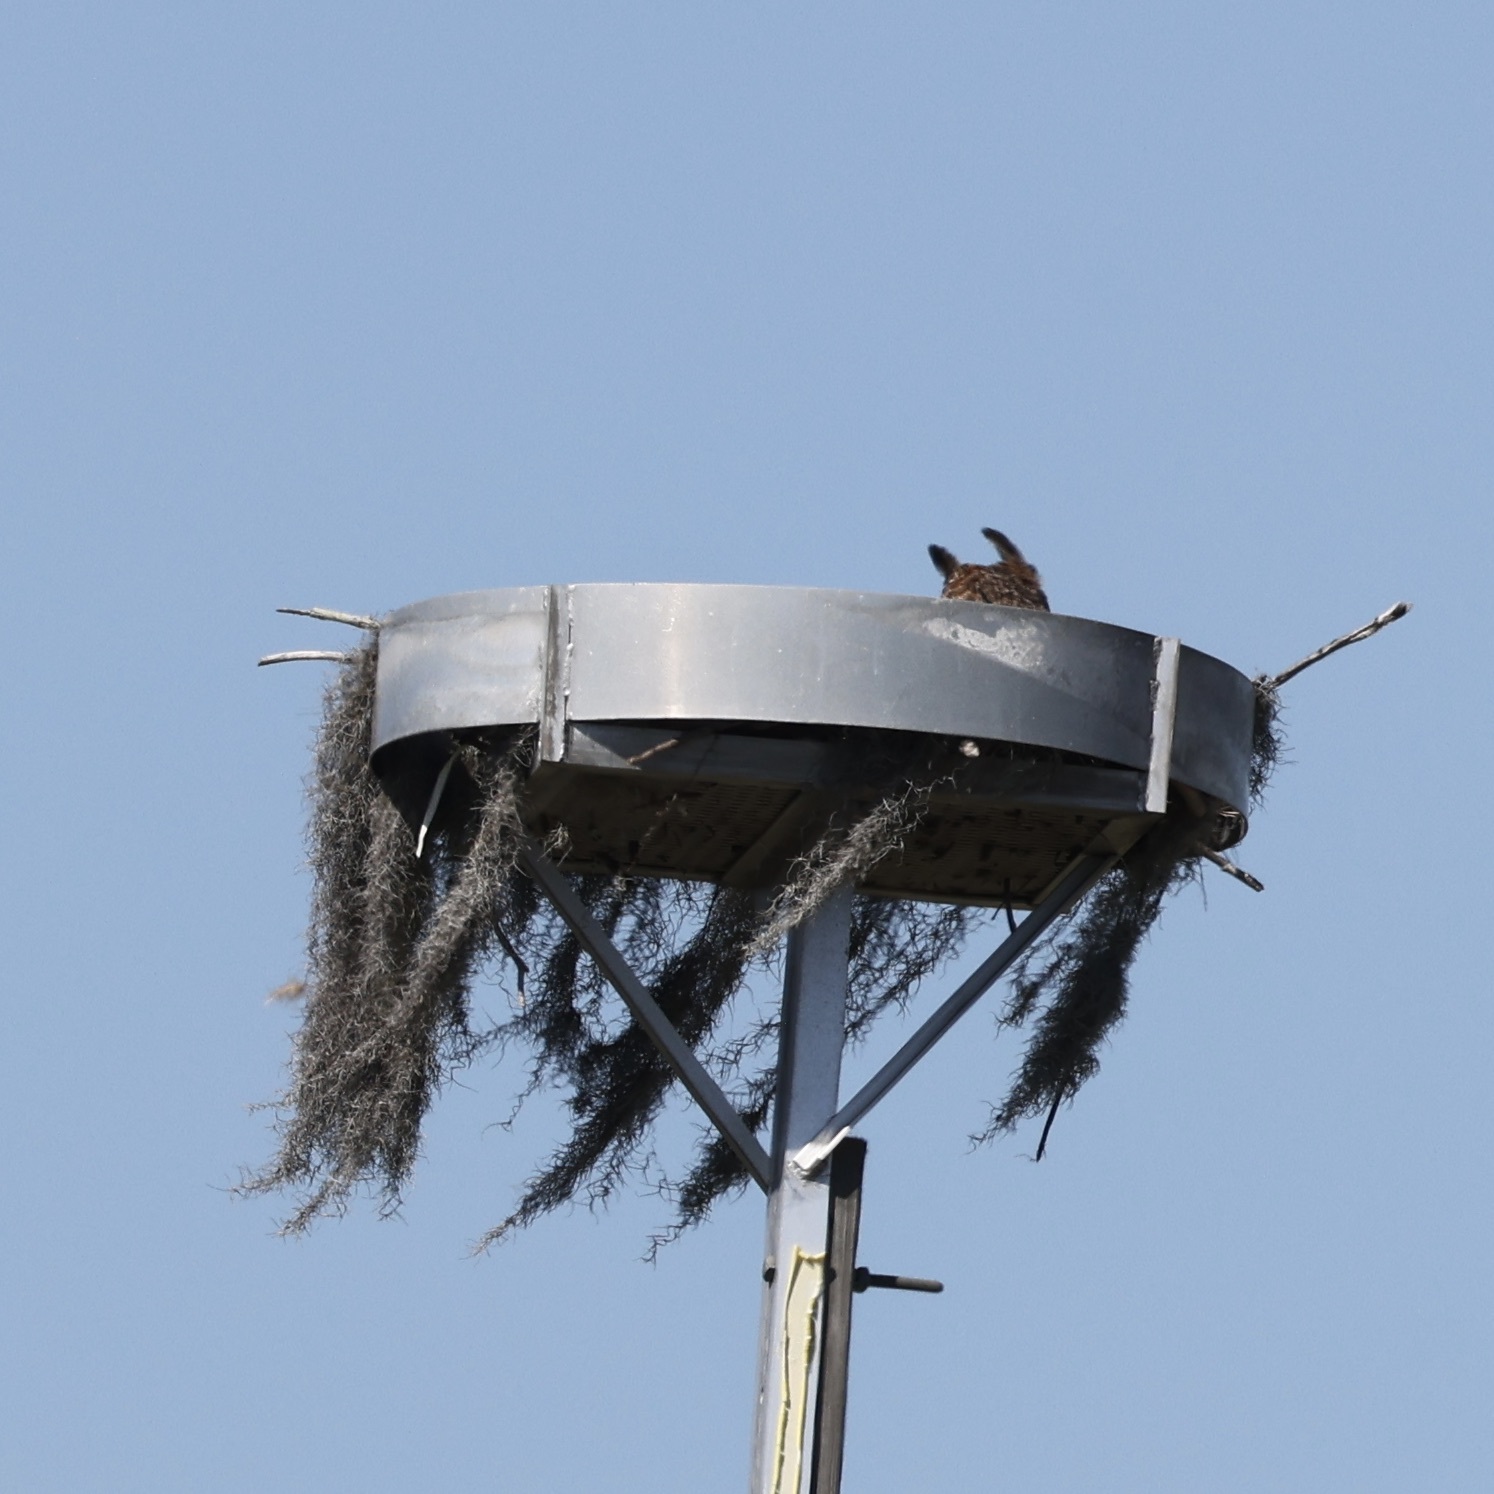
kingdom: Animalia
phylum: Chordata
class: Aves
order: Strigiformes
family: Strigidae
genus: Bubo
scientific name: Bubo virginianus
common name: Great horned owl
